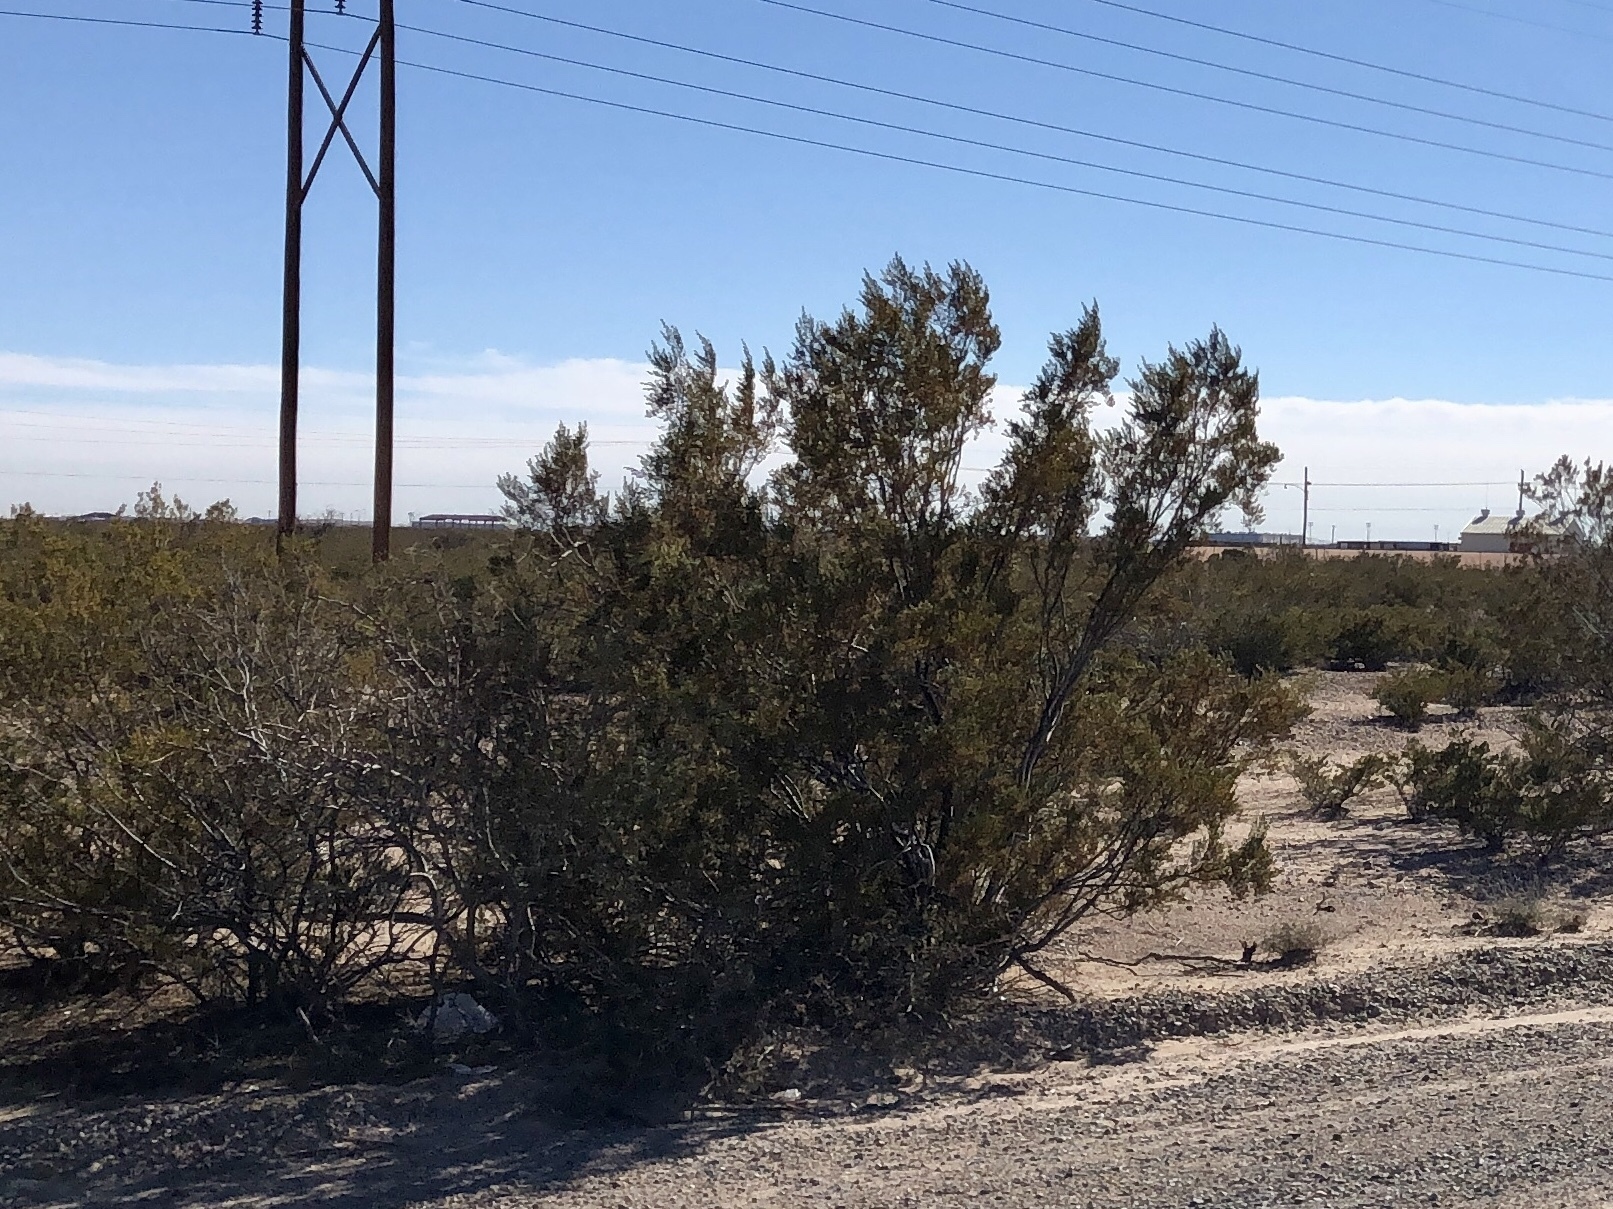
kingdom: Plantae
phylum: Tracheophyta
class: Magnoliopsida
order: Zygophyllales
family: Zygophyllaceae
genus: Larrea
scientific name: Larrea tridentata
